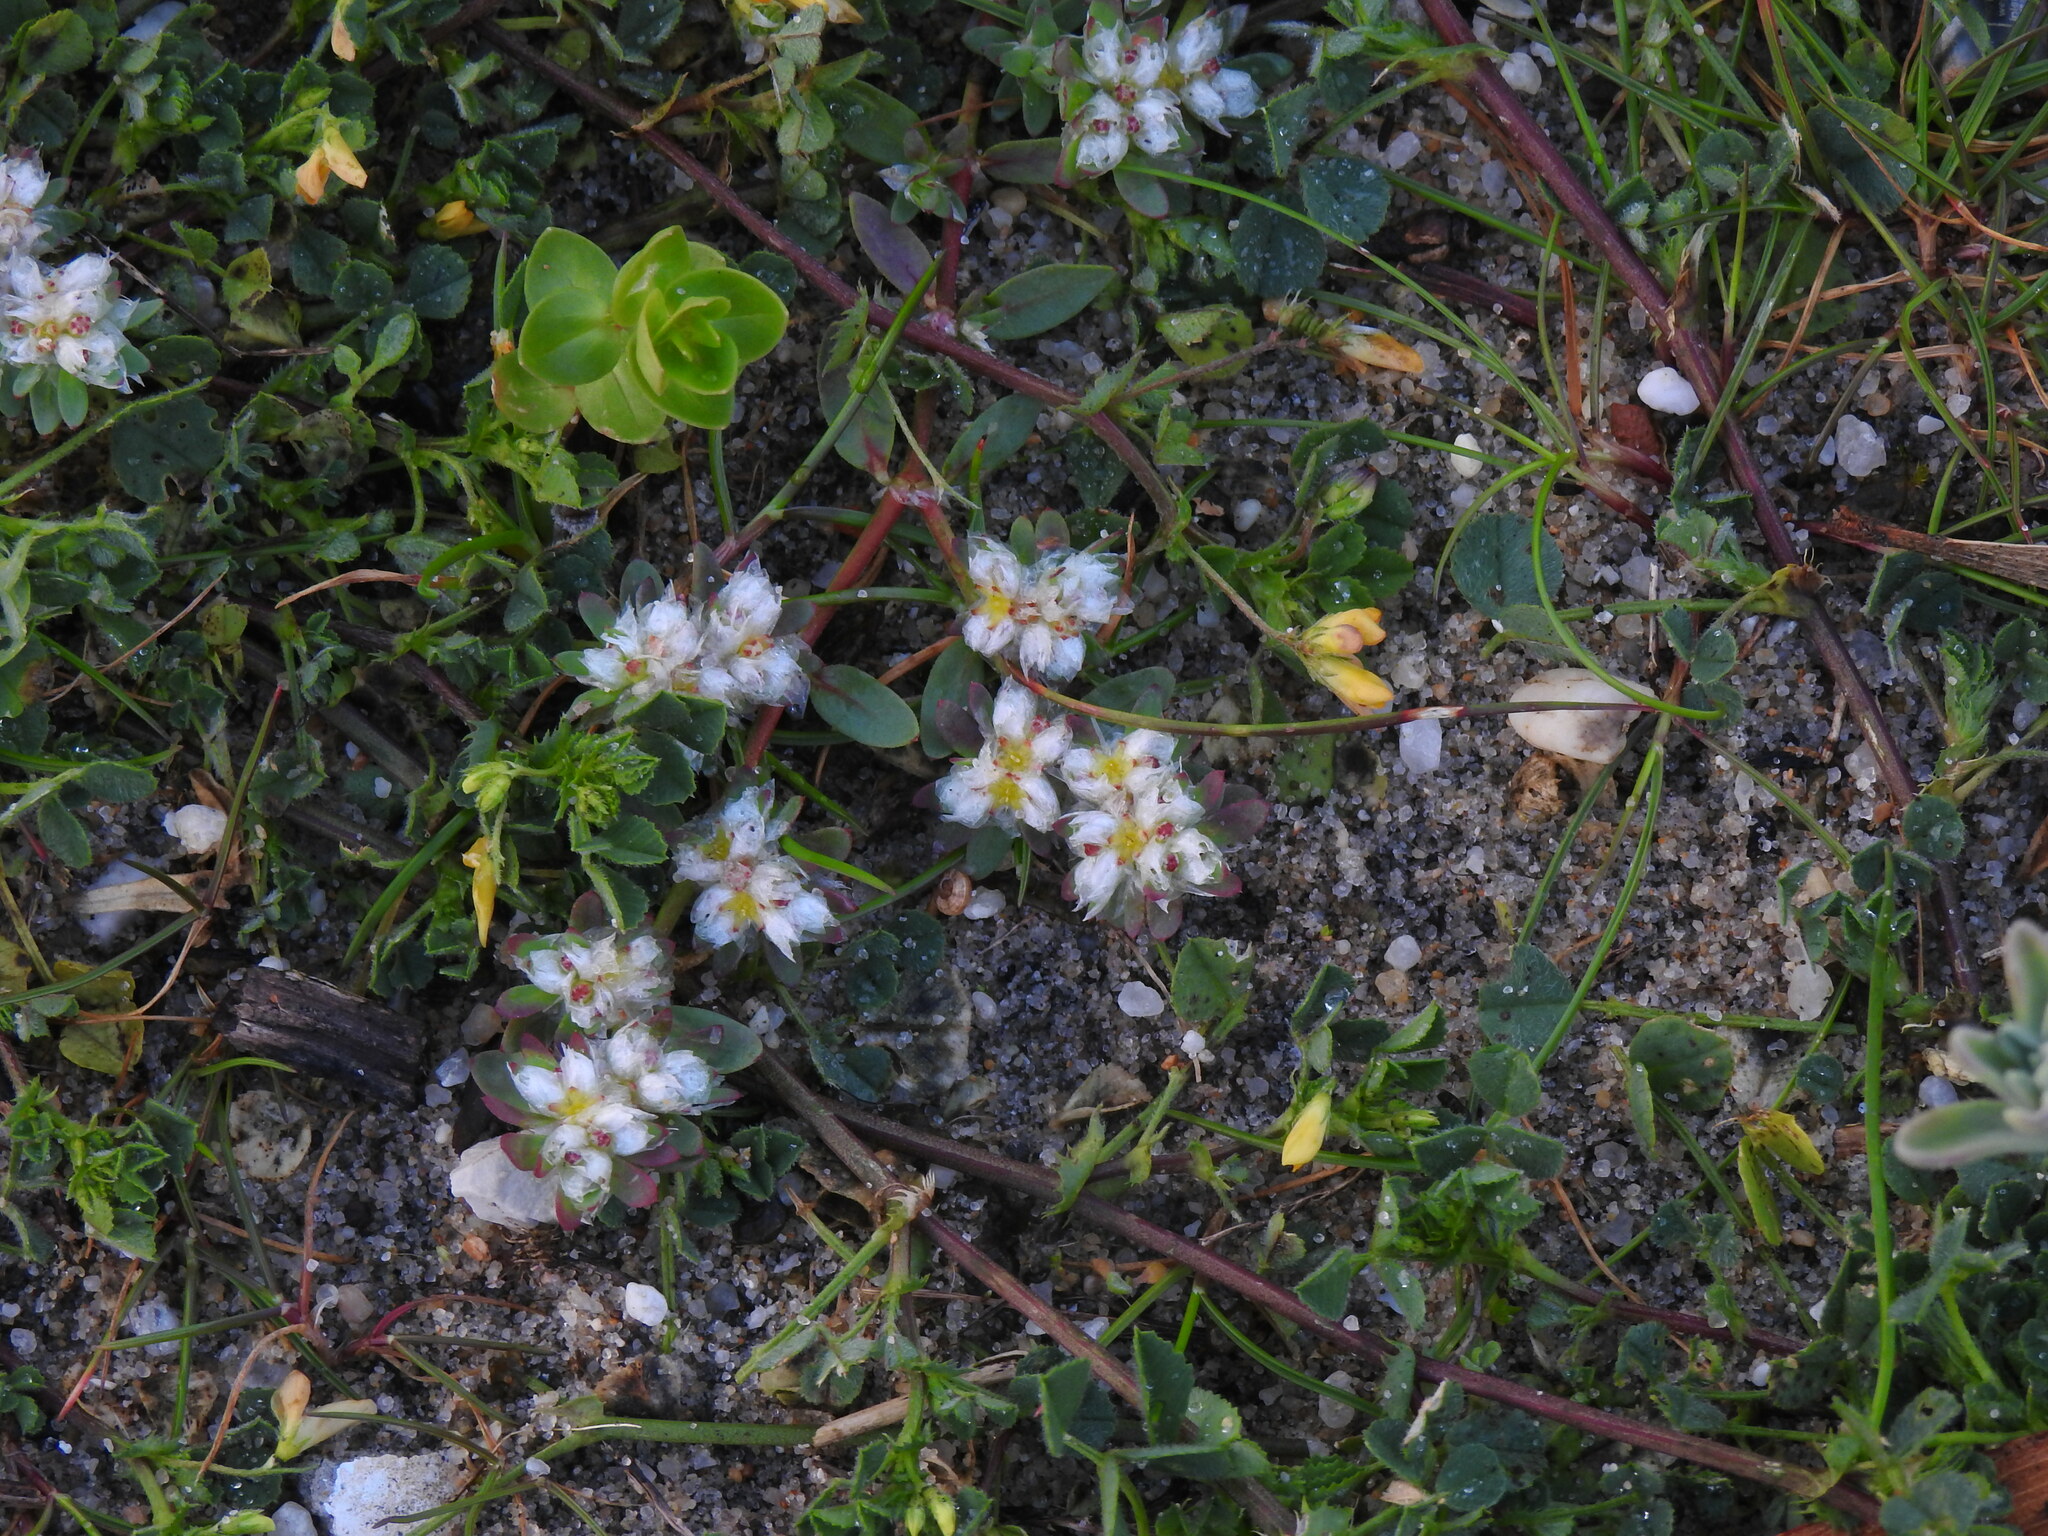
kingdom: Plantae
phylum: Tracheophyta
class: Magnoliopsida
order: Caryophyllales
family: Caryophyllaceae
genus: Paronychia
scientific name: Paronychia argentea
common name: Silver nailroot
